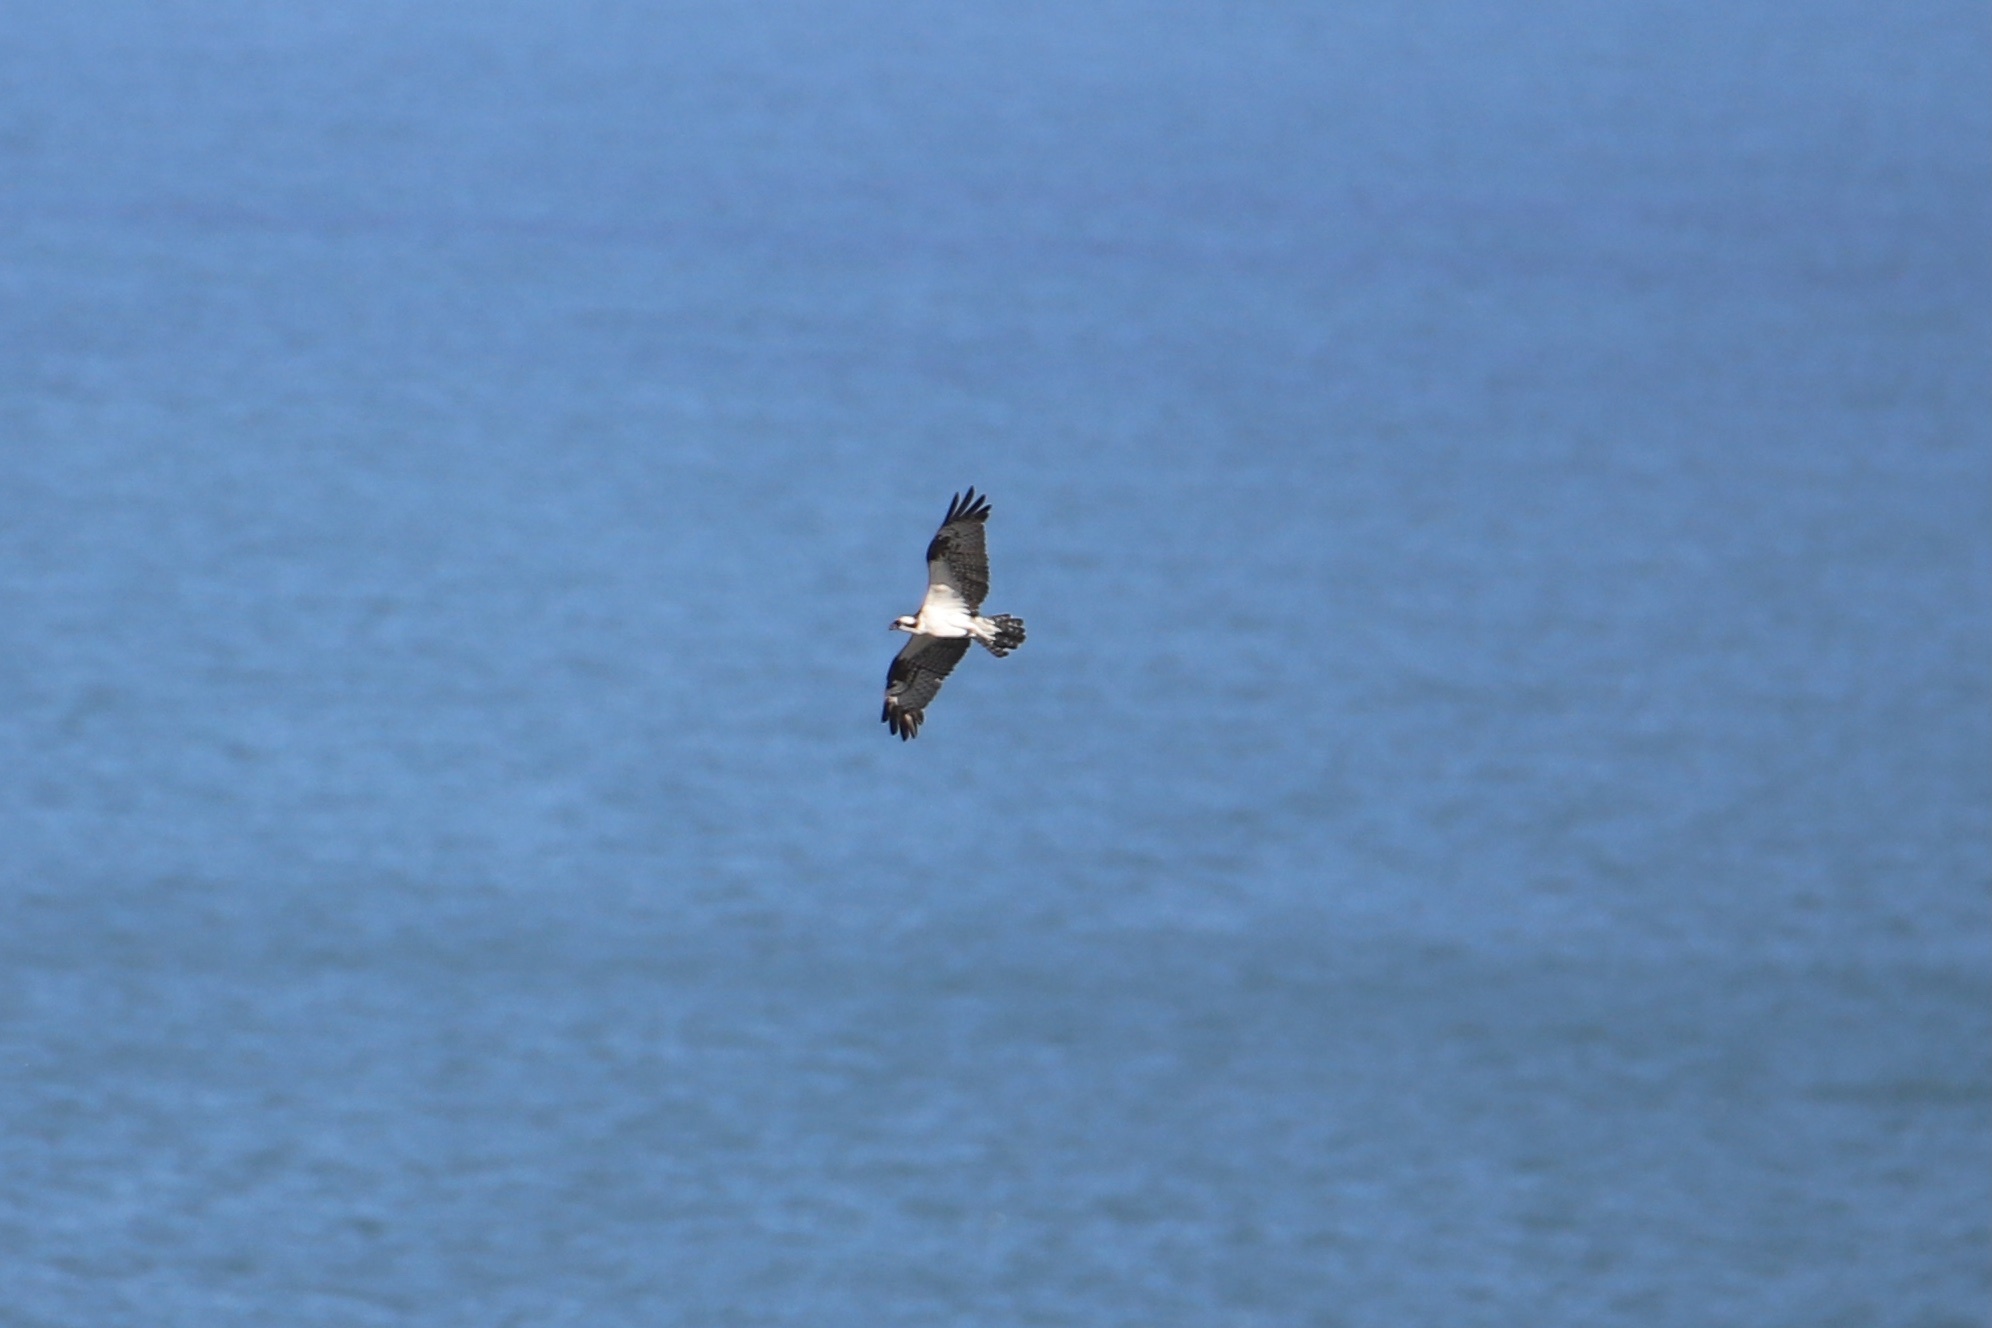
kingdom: Animalia
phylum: Chordata
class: Aves
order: Accipitriformes
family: Pandionidae
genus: Pandion
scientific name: Pandion haliaetus
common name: Osprey
